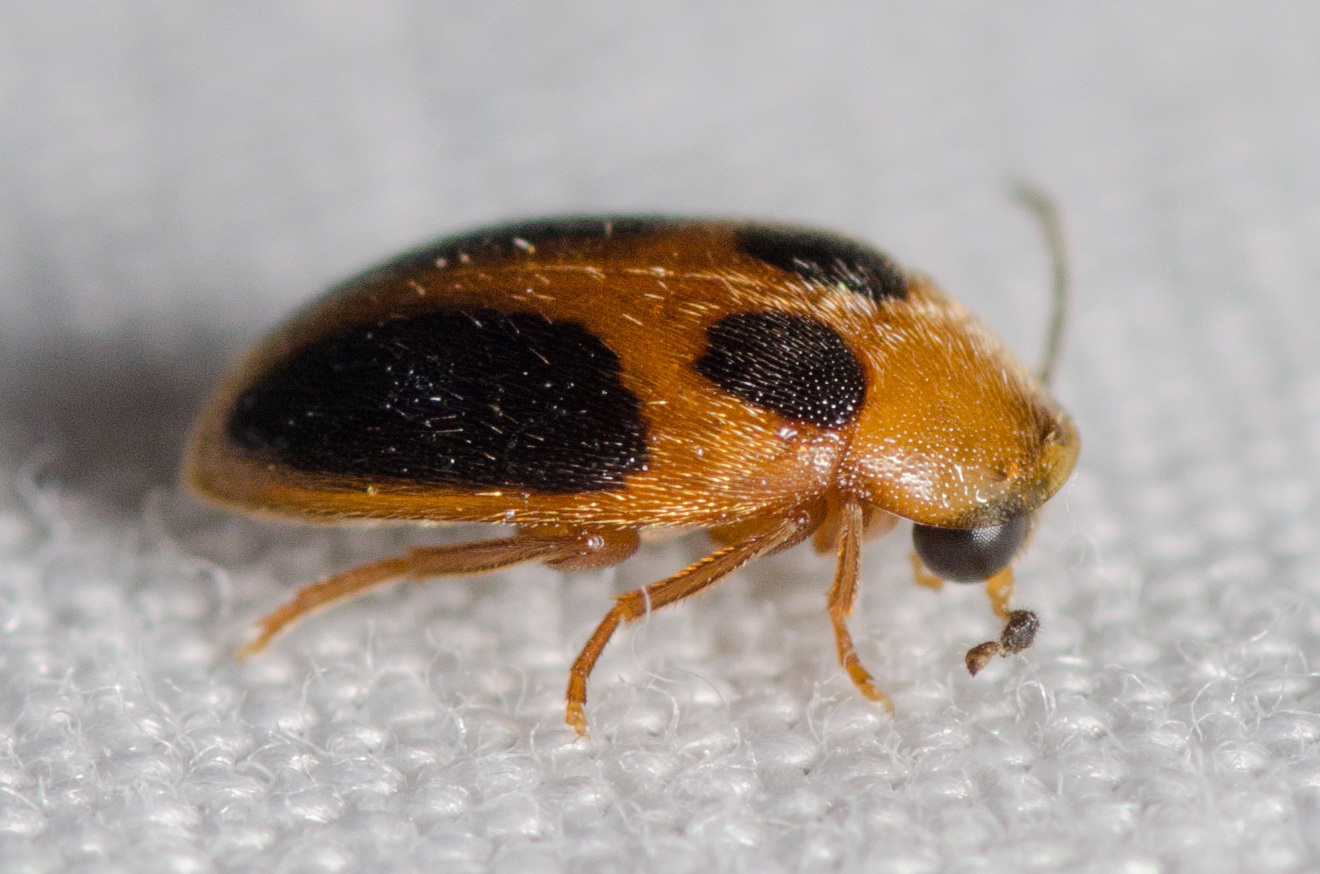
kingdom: Animalia
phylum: Arthropoda
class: Insecta
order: Coleoptera
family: Scirtidae
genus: Sacodes
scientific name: Sacodes pulchella
